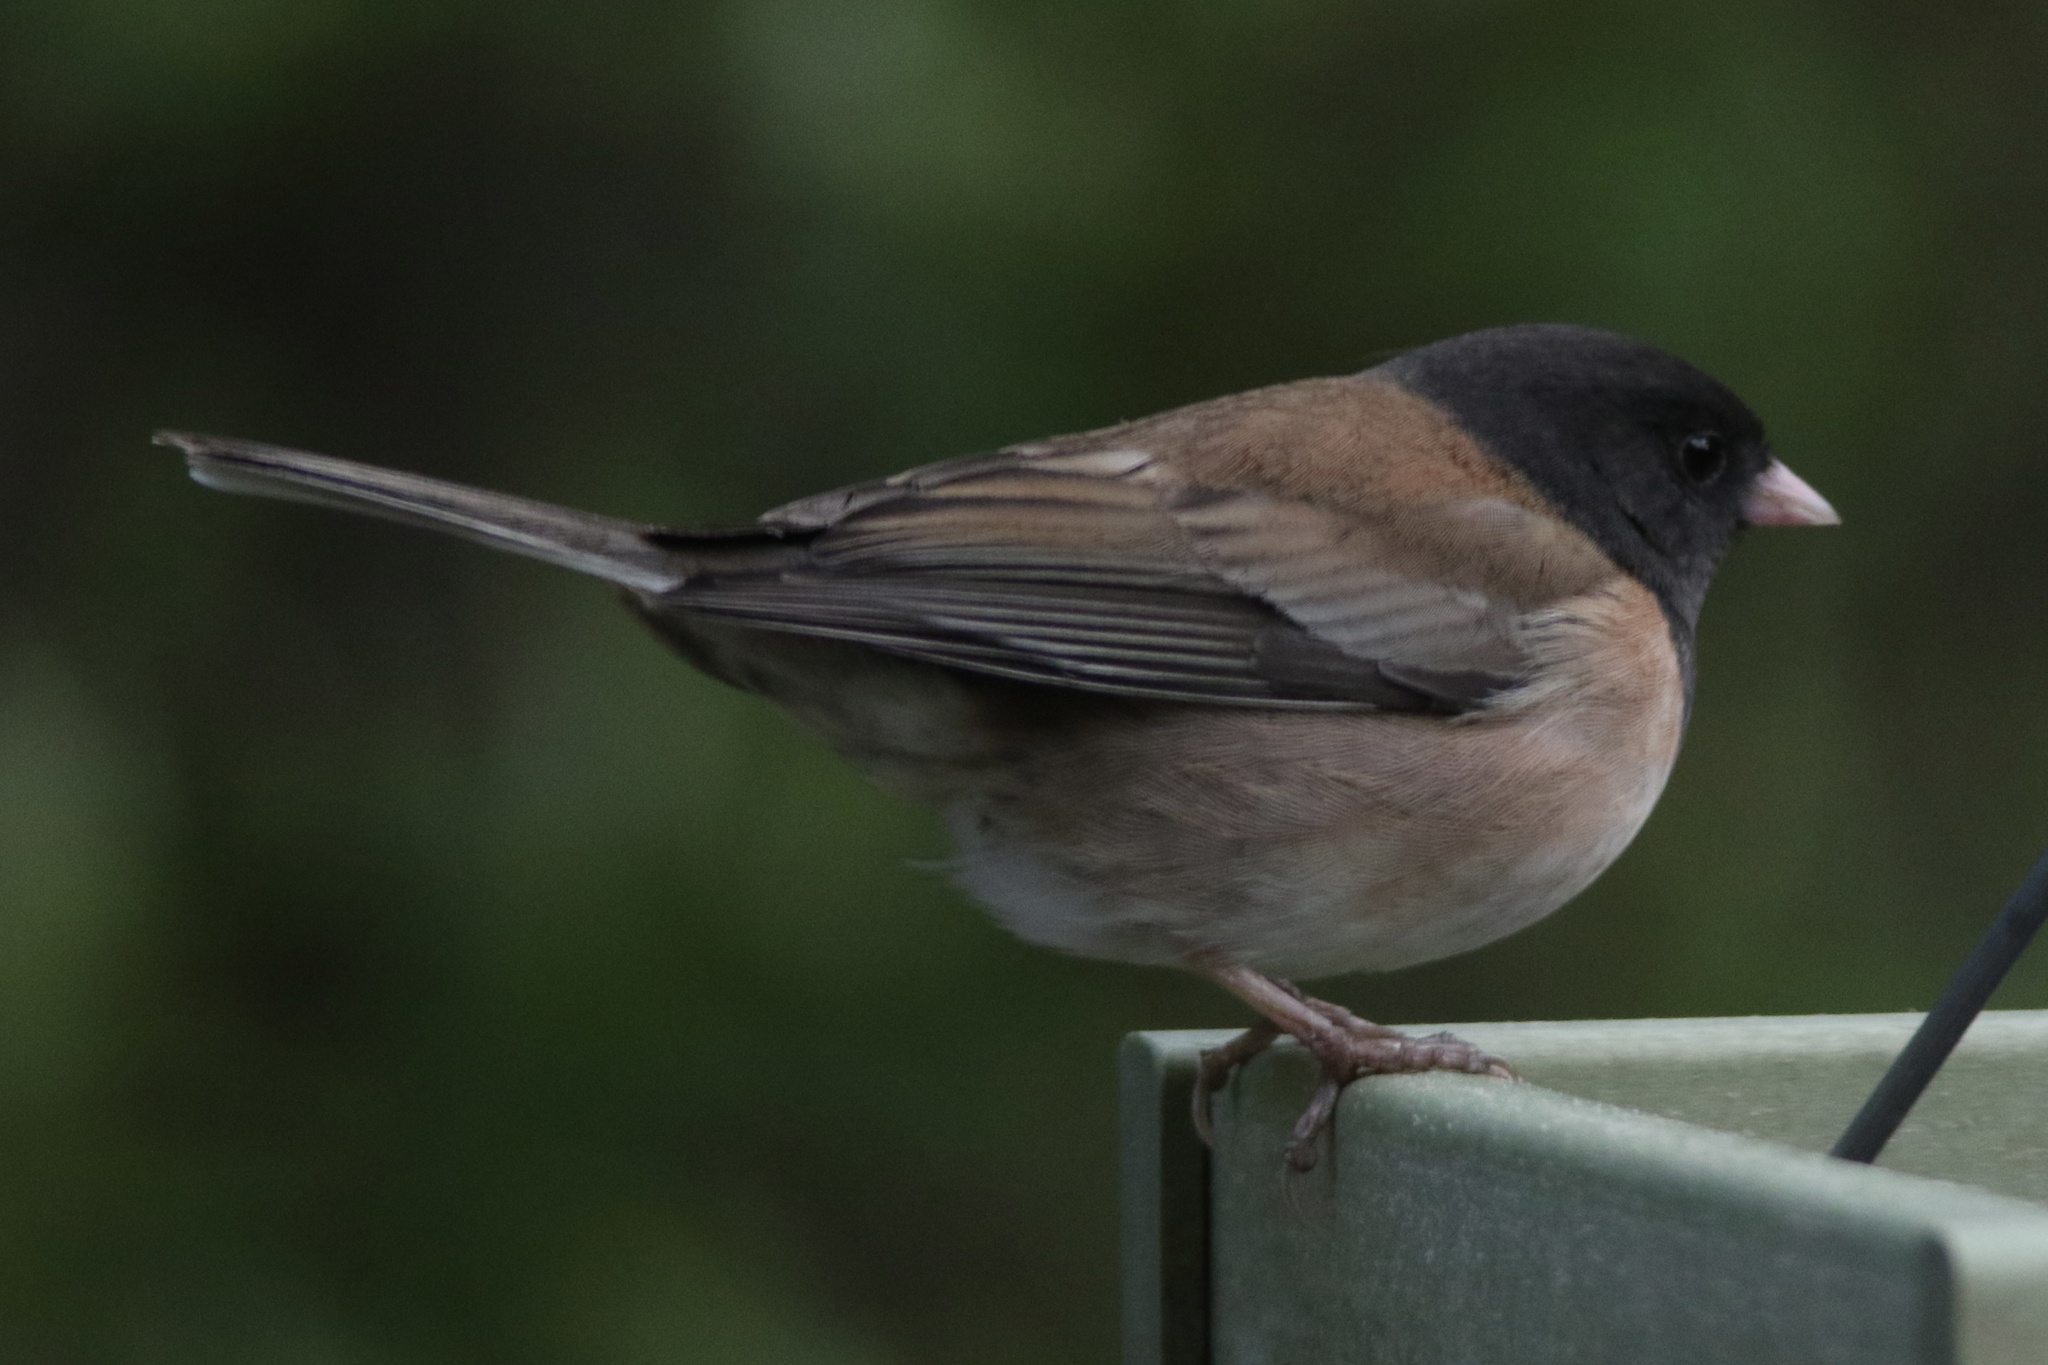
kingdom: Animalia
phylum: Chordata
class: Aves
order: Passeriformes
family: Passerellidae
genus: Junco
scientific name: Junco hyemalis
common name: Dark-eyed junco
